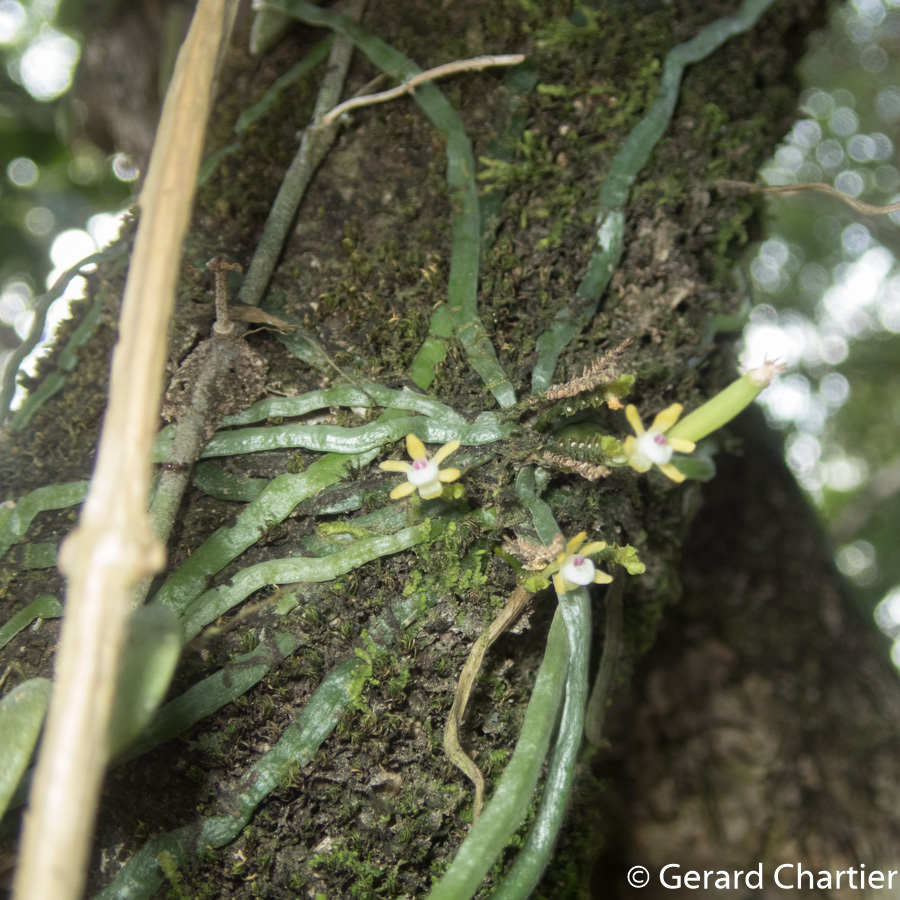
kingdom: Plantae
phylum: Tracheophyta
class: Liliopsida
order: Asparagales
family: Orchidaceae
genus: Taeniophyllum
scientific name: Taeniophyllum pusillum
